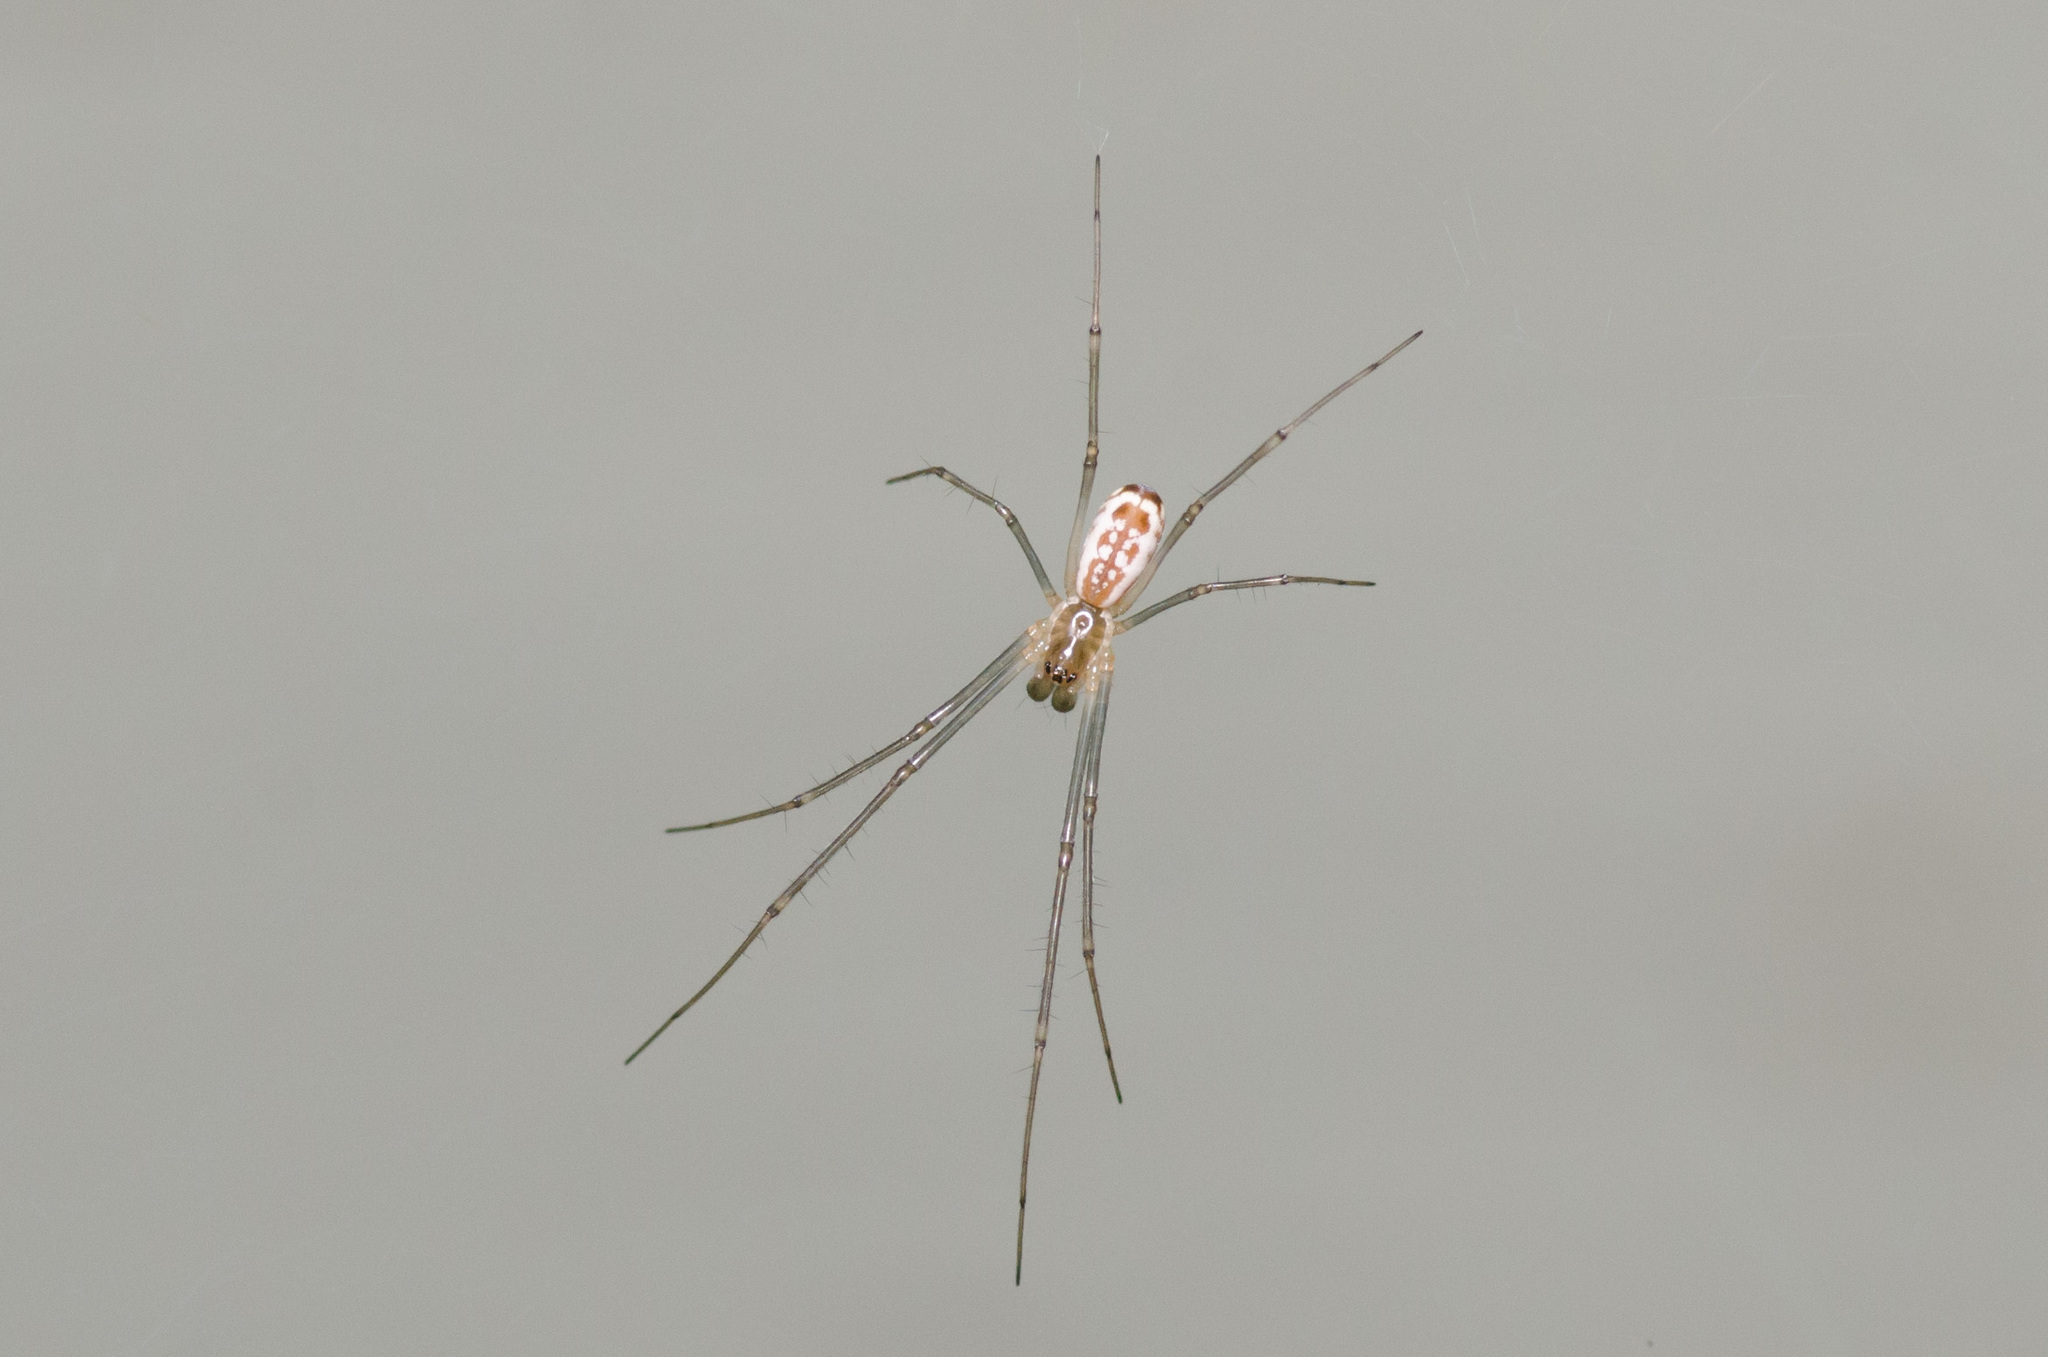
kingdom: Animalia
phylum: Arthropoda
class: Arachnida
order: Araneae
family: Linyphiidae
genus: Neriene
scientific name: Neriene radiata
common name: Filmy dome spider
